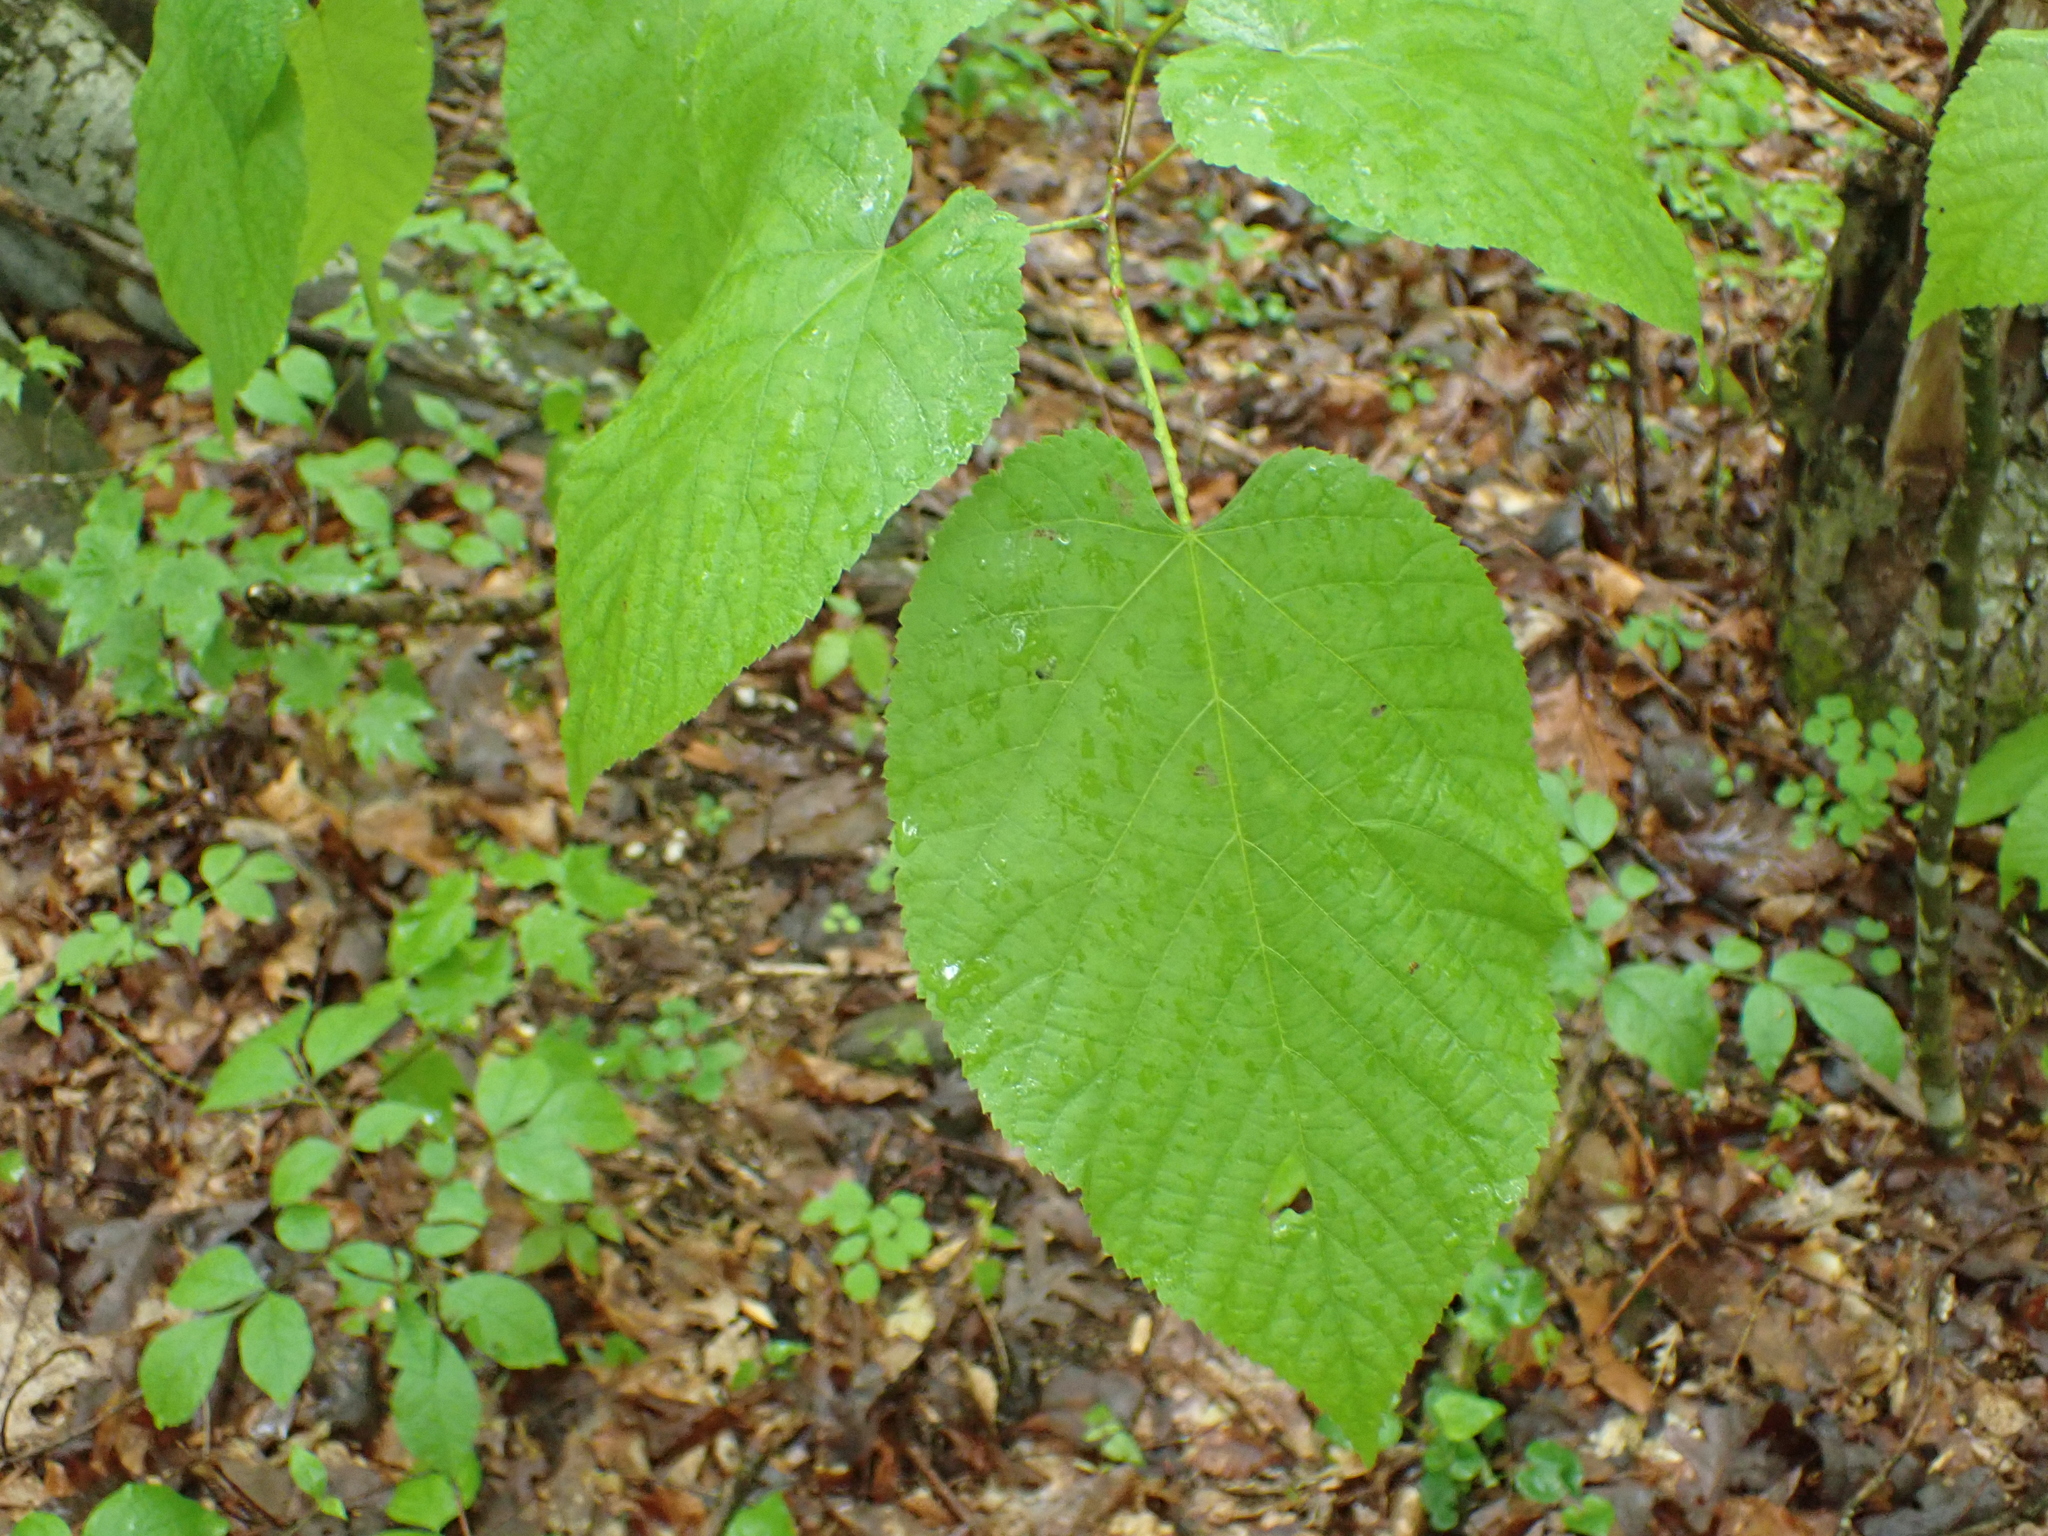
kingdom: Plantae
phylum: Tracheophyta
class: Magnoliopsida
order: Malvales
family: Malvaceae
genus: Tilia
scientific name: Tilia americana
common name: Basswood
